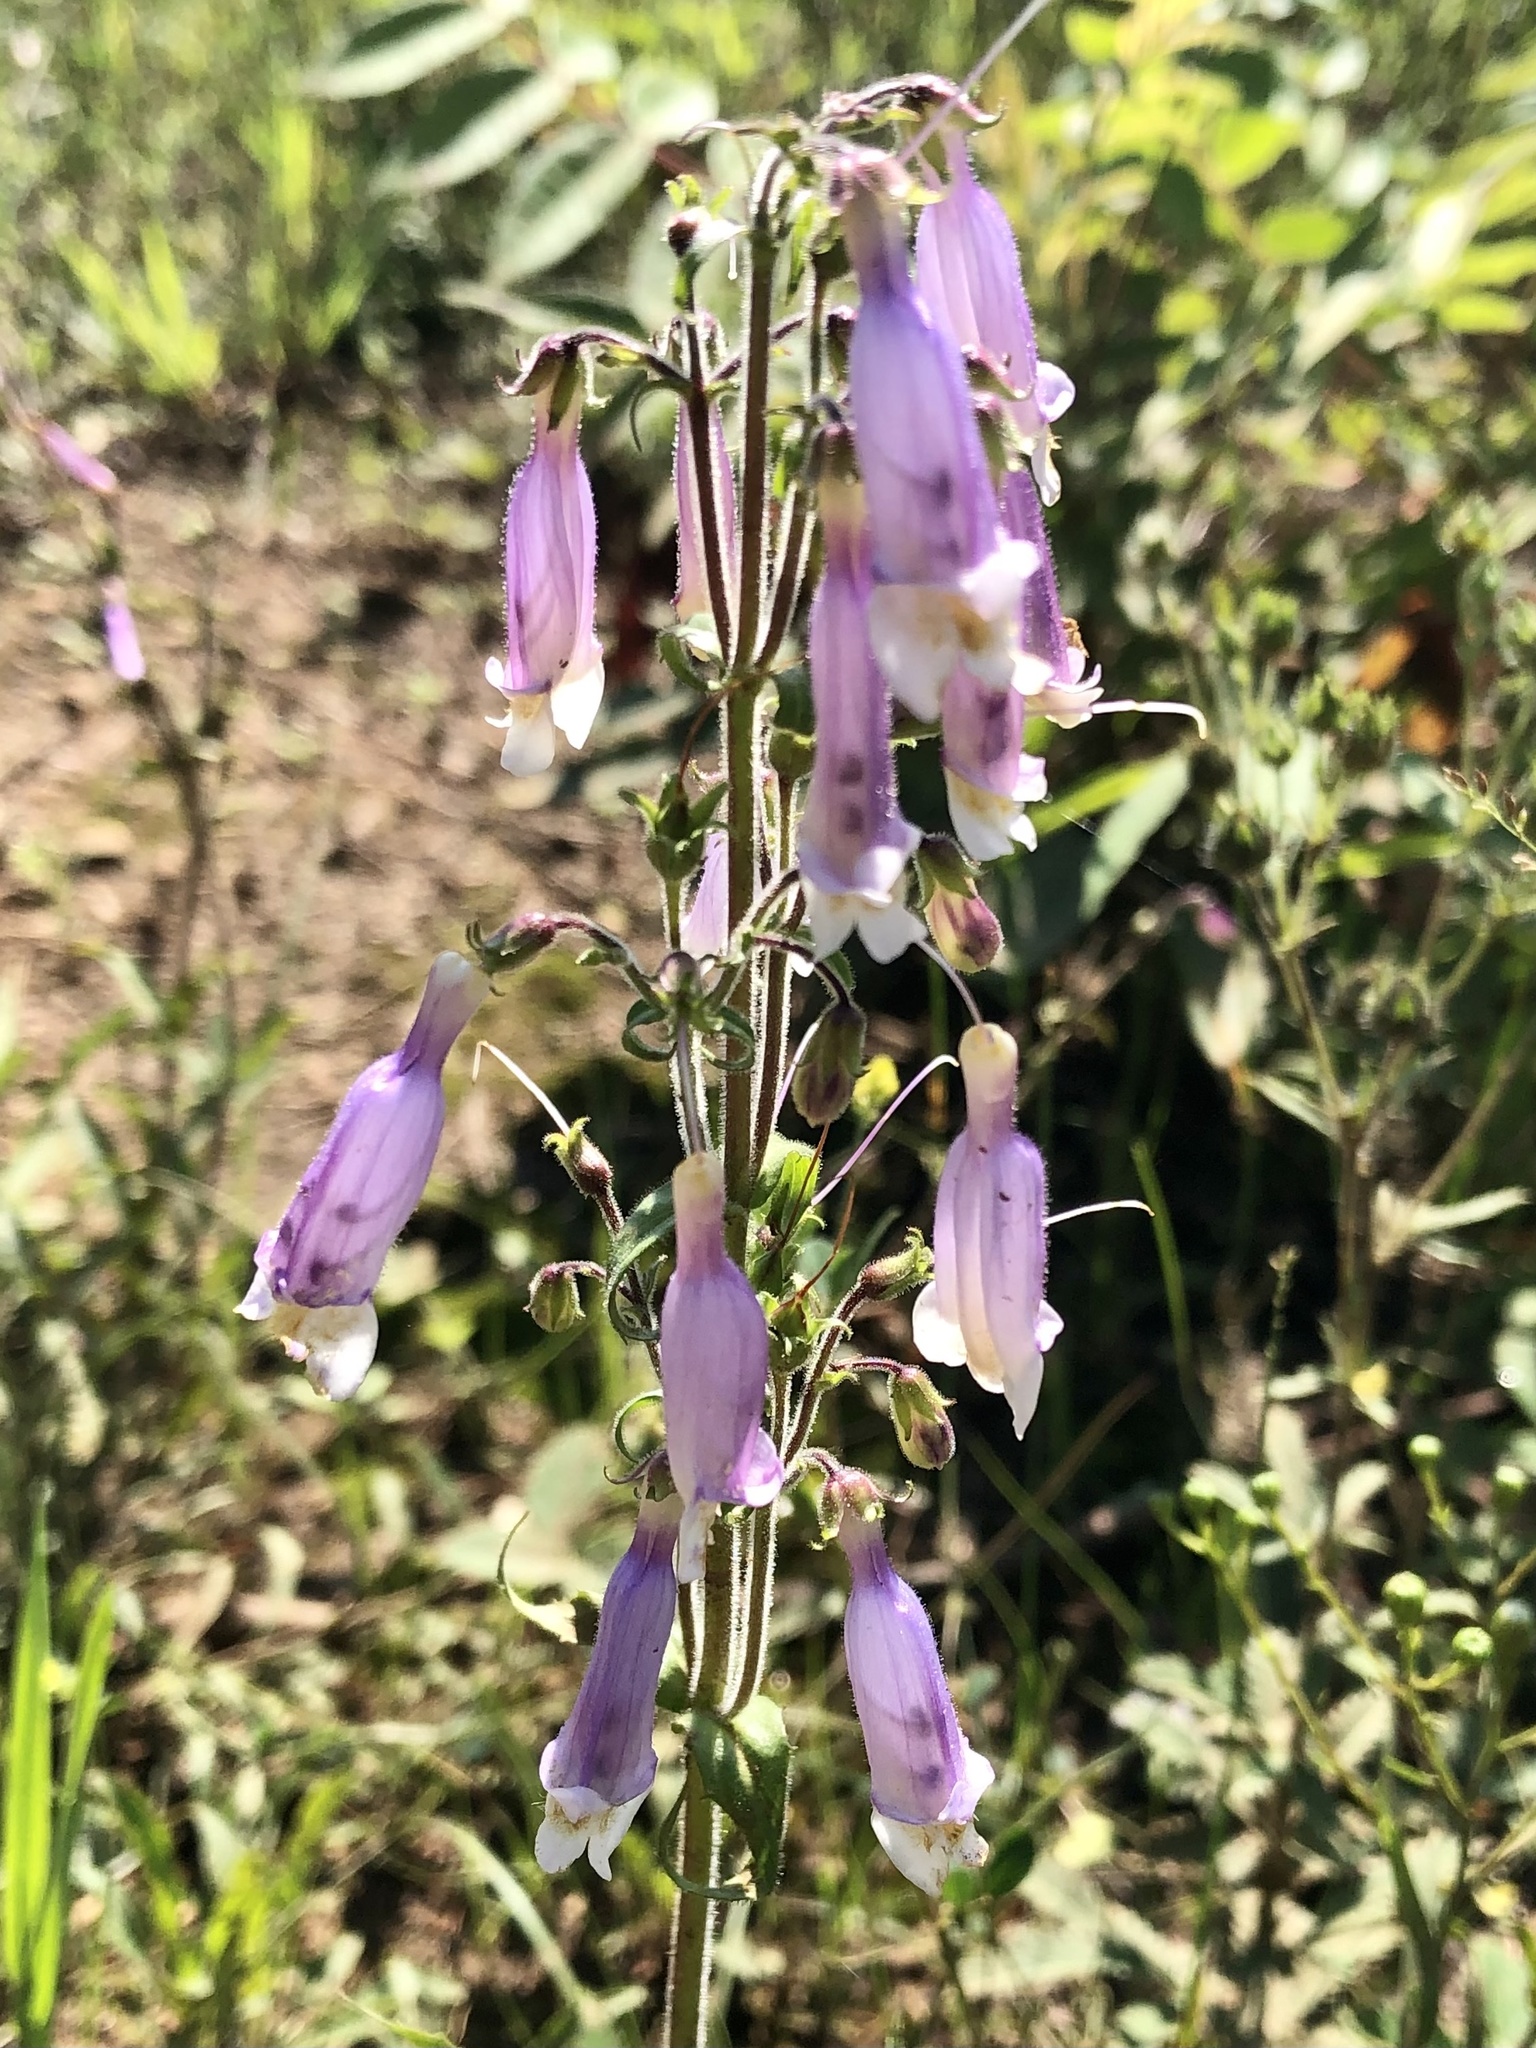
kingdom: Plantae
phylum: Tracheophyta
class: Magnoliopsida
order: Lamiales
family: Plantaginaceae
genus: Penstemon
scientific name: Penstemon hirsutus
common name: Hairy beardtongue
